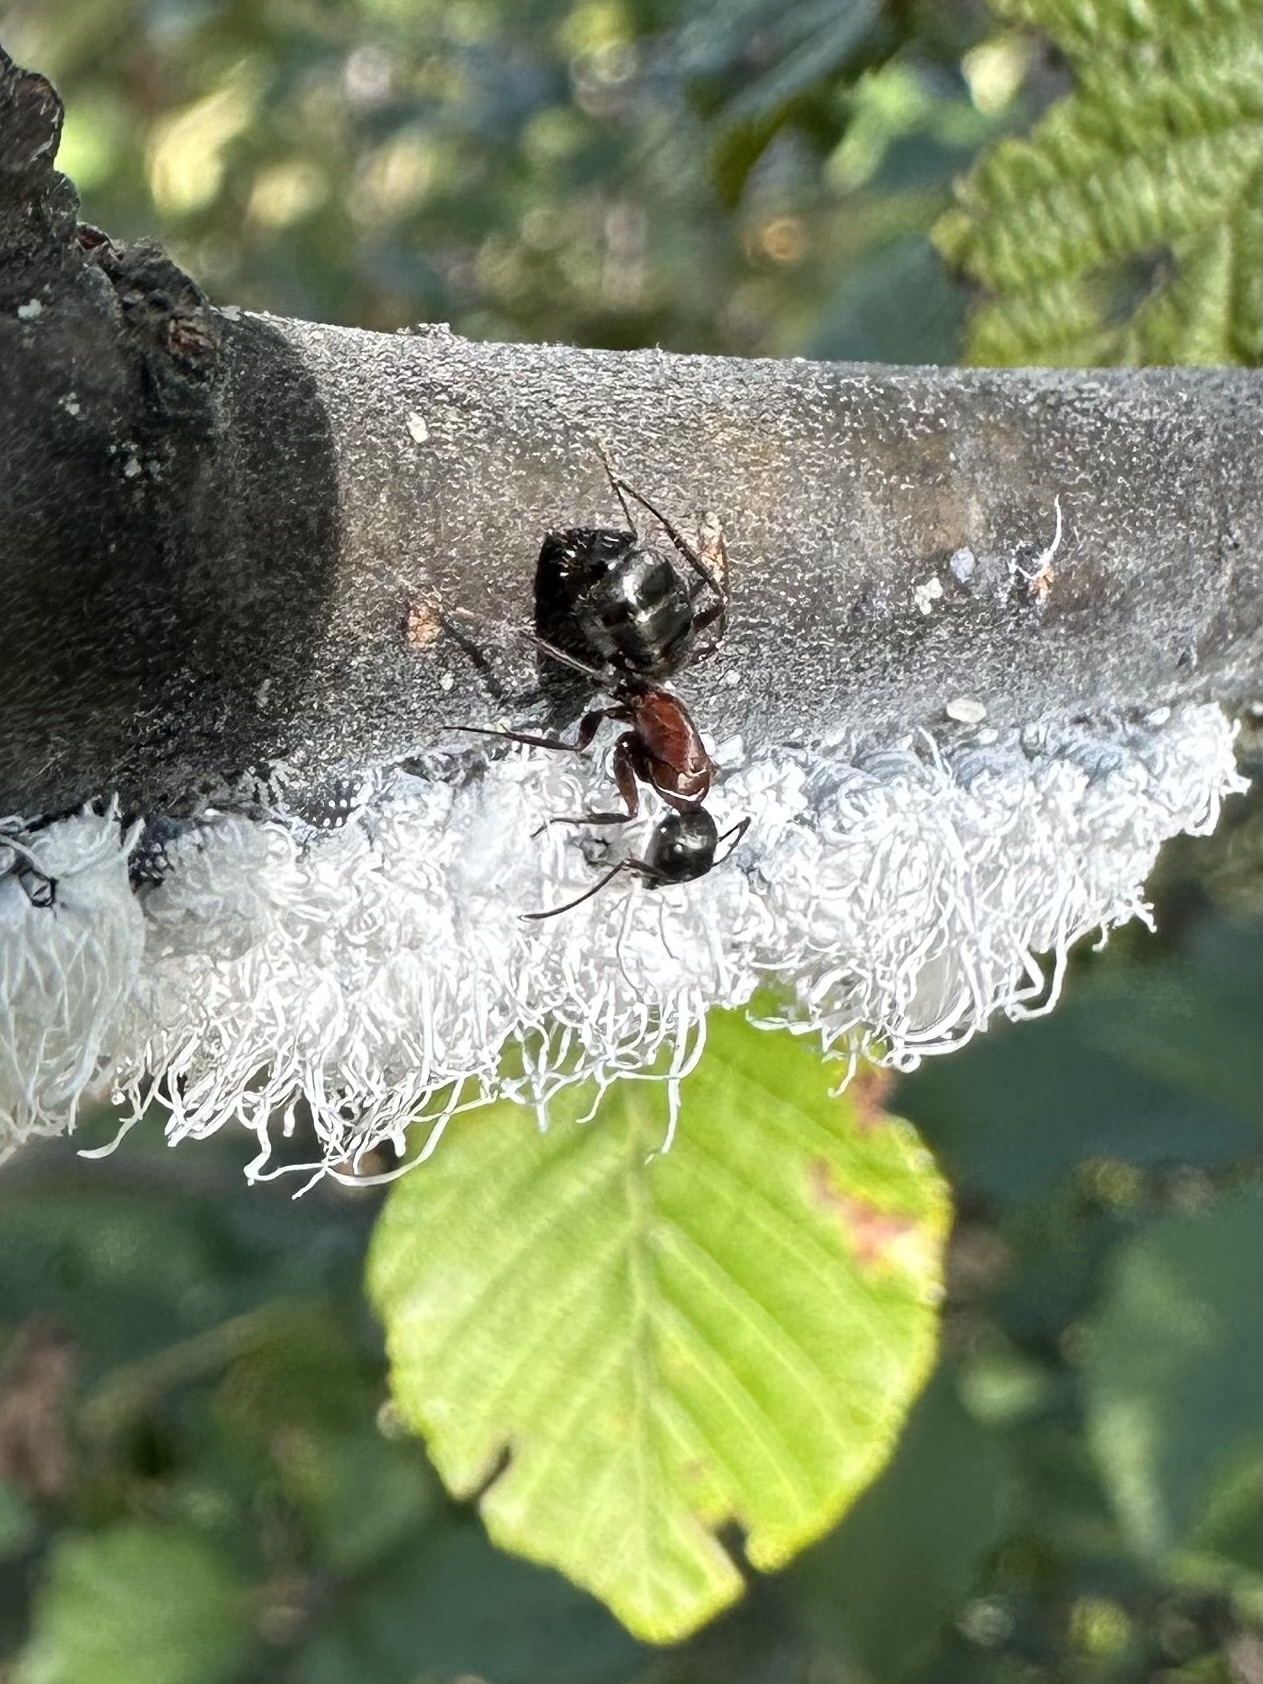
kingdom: Animalia
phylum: Arthropoda
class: Insecta
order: Hemiptera
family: Aphididae
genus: Prociphilus
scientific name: Prociphilus tessellatus
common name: Woolly alder aphid
